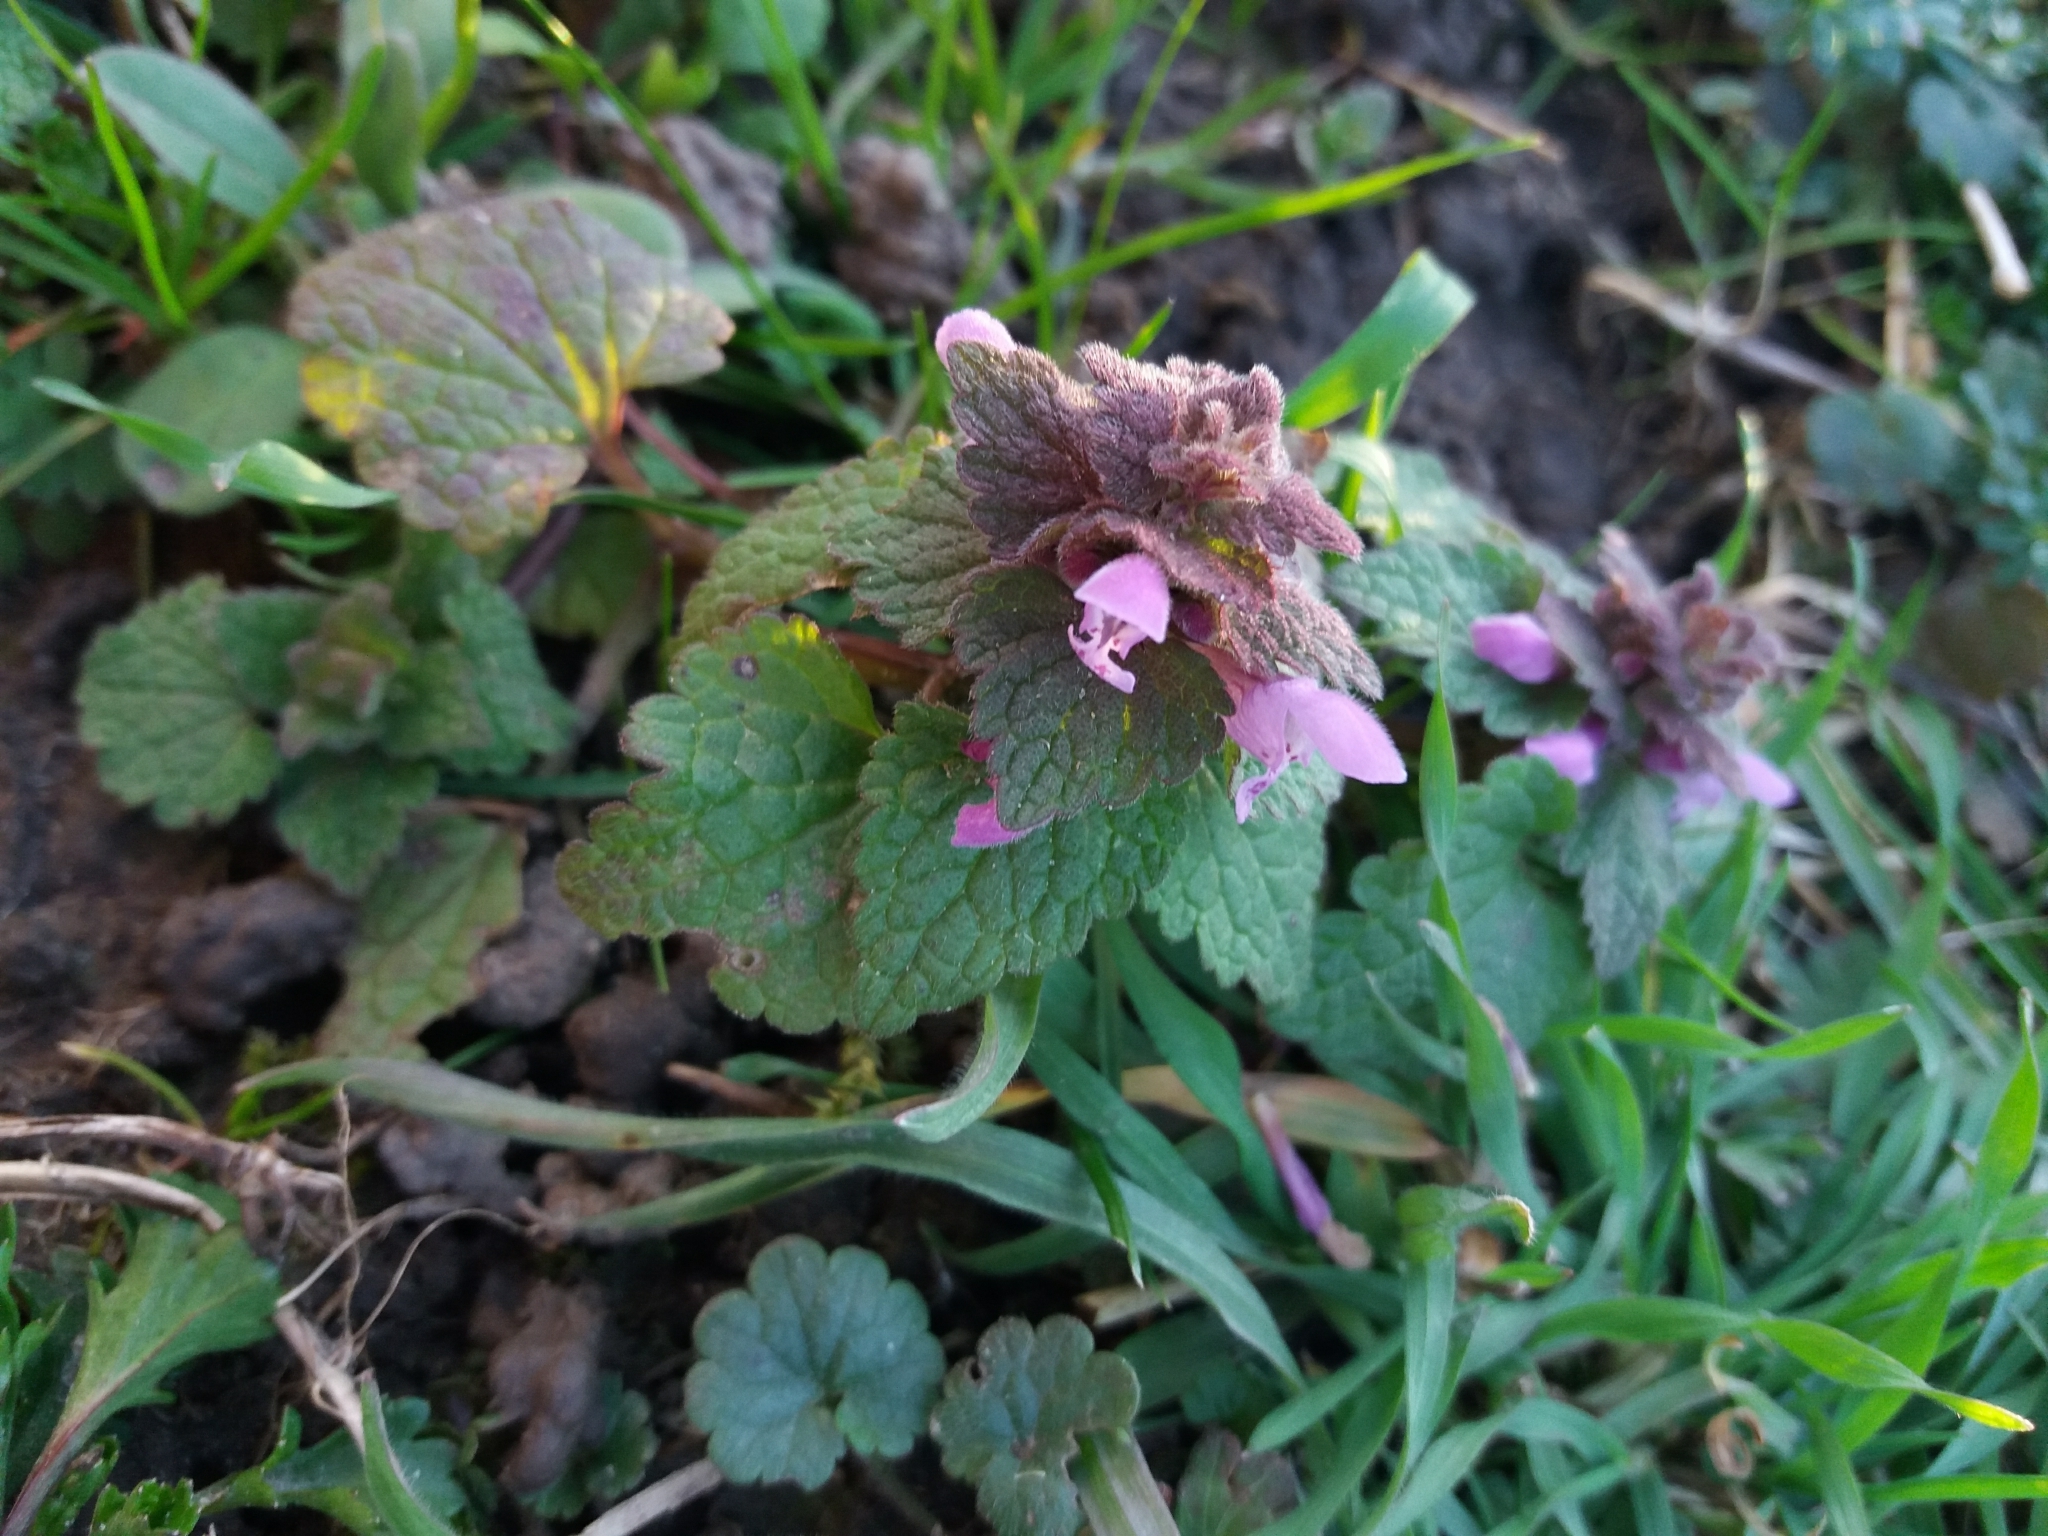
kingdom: Plantae
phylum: Tracheophyta
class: Magnoliopsida
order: Lamiales
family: Lamiaceae
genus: Lamium
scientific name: Lamium purpureum
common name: Red dead-nettle
